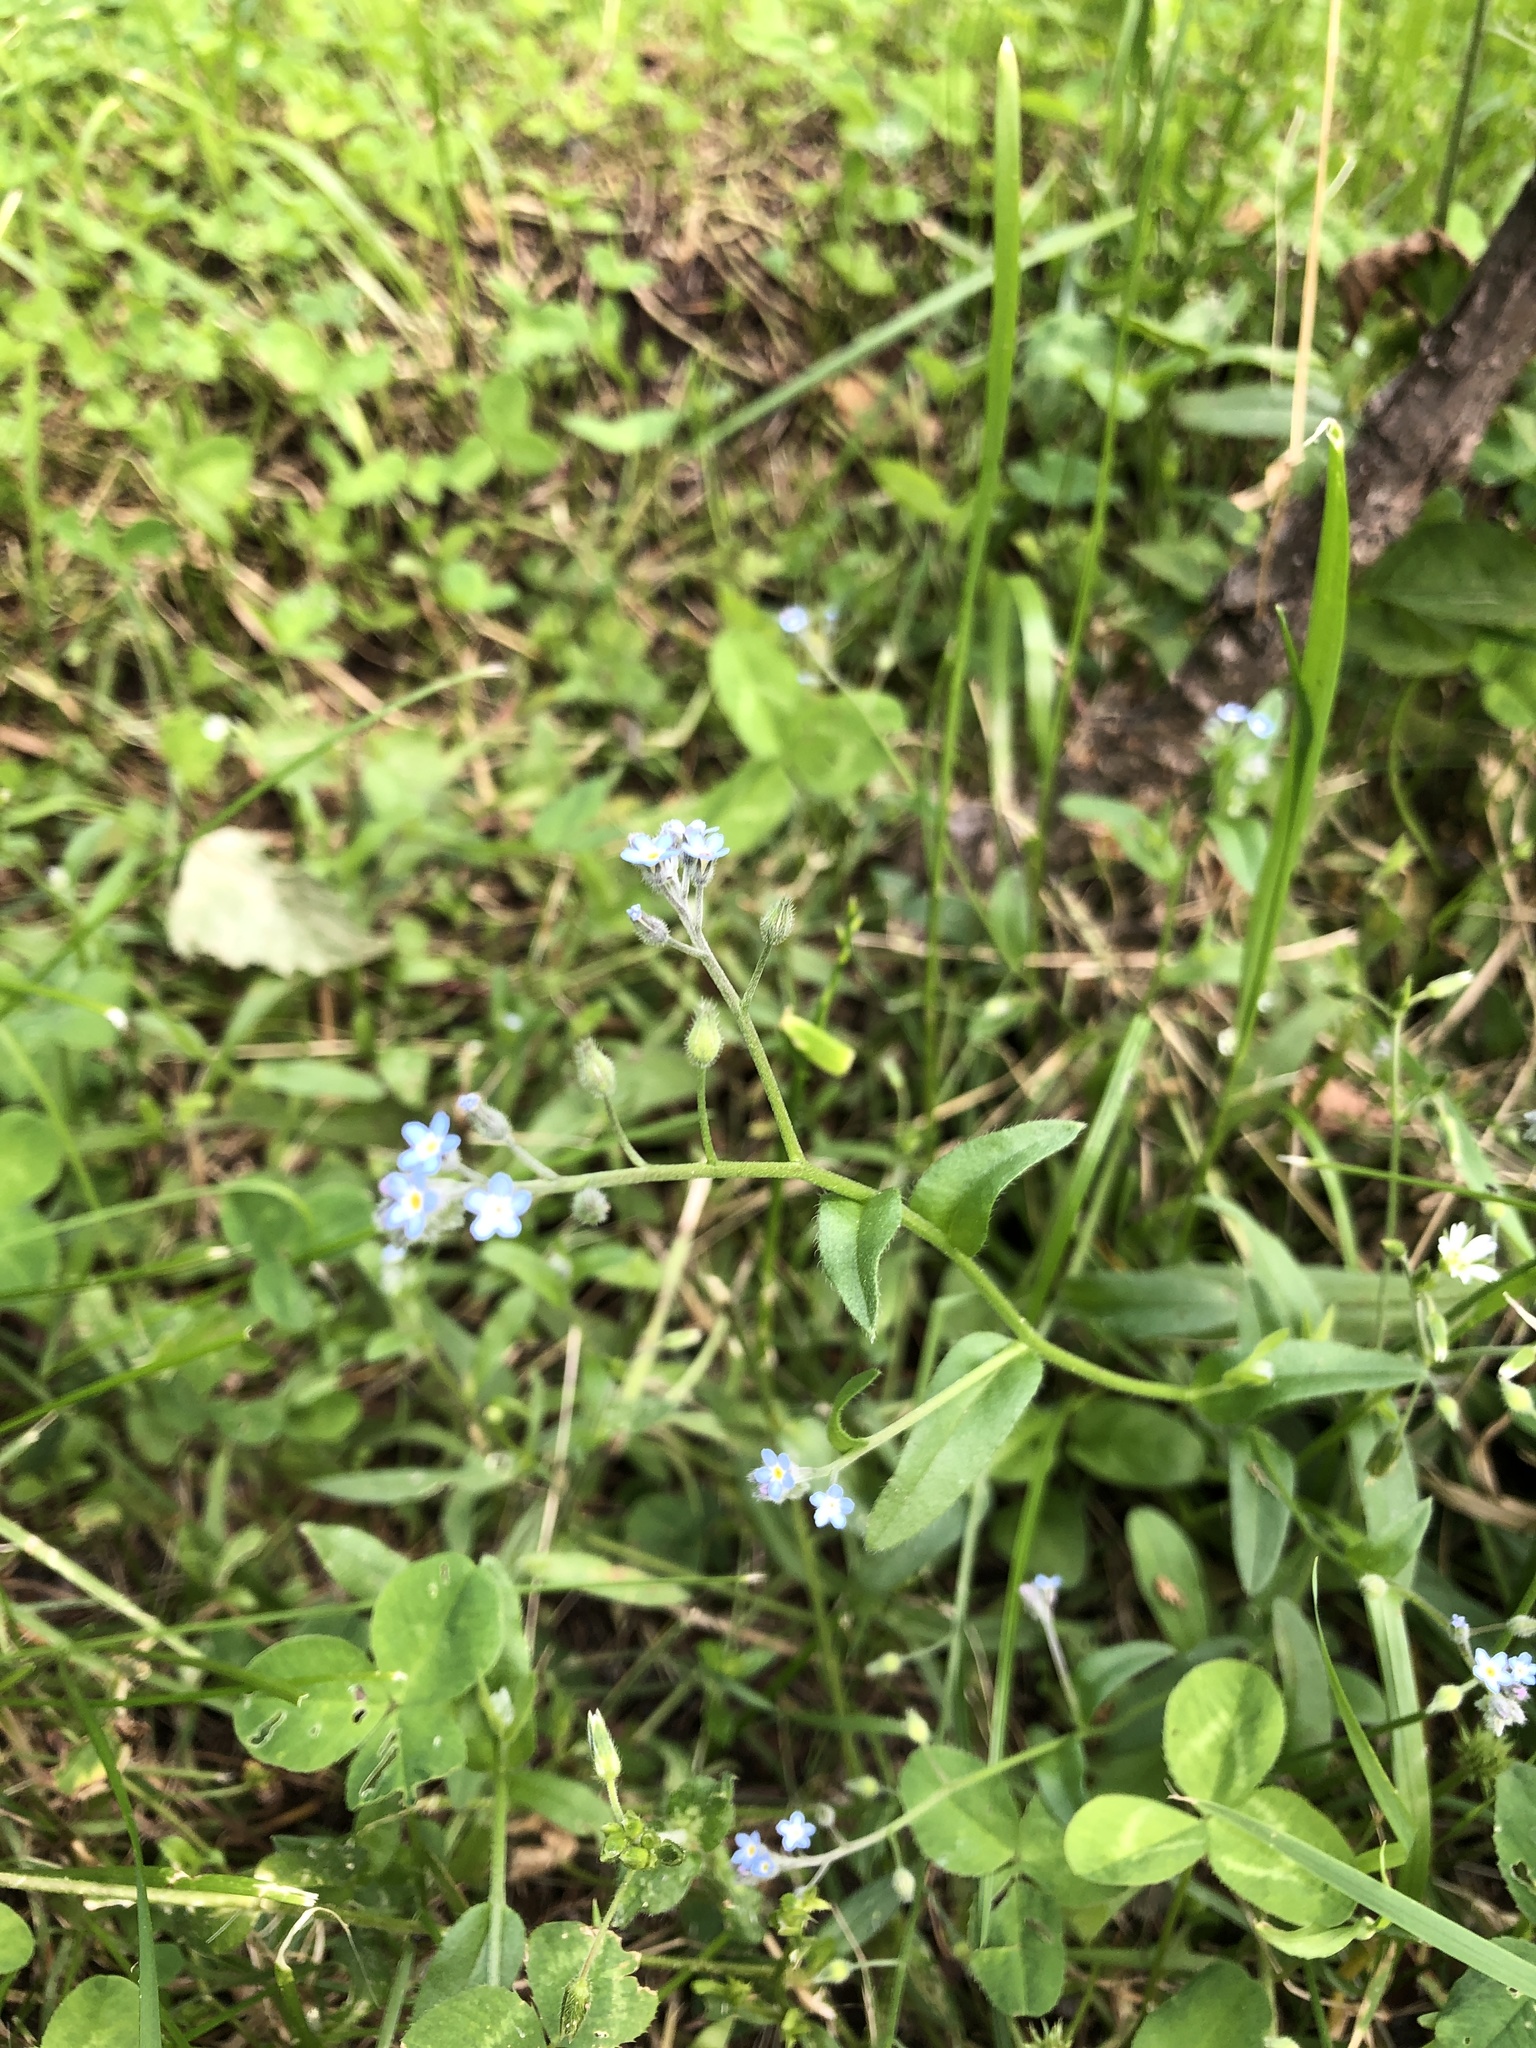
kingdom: Plantae
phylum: Tracheophyta
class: Magnoliopsida
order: Boraginales
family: Boraginaceae
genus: Myosotis
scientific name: Myosotis arvensis
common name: Field forget-me-not
